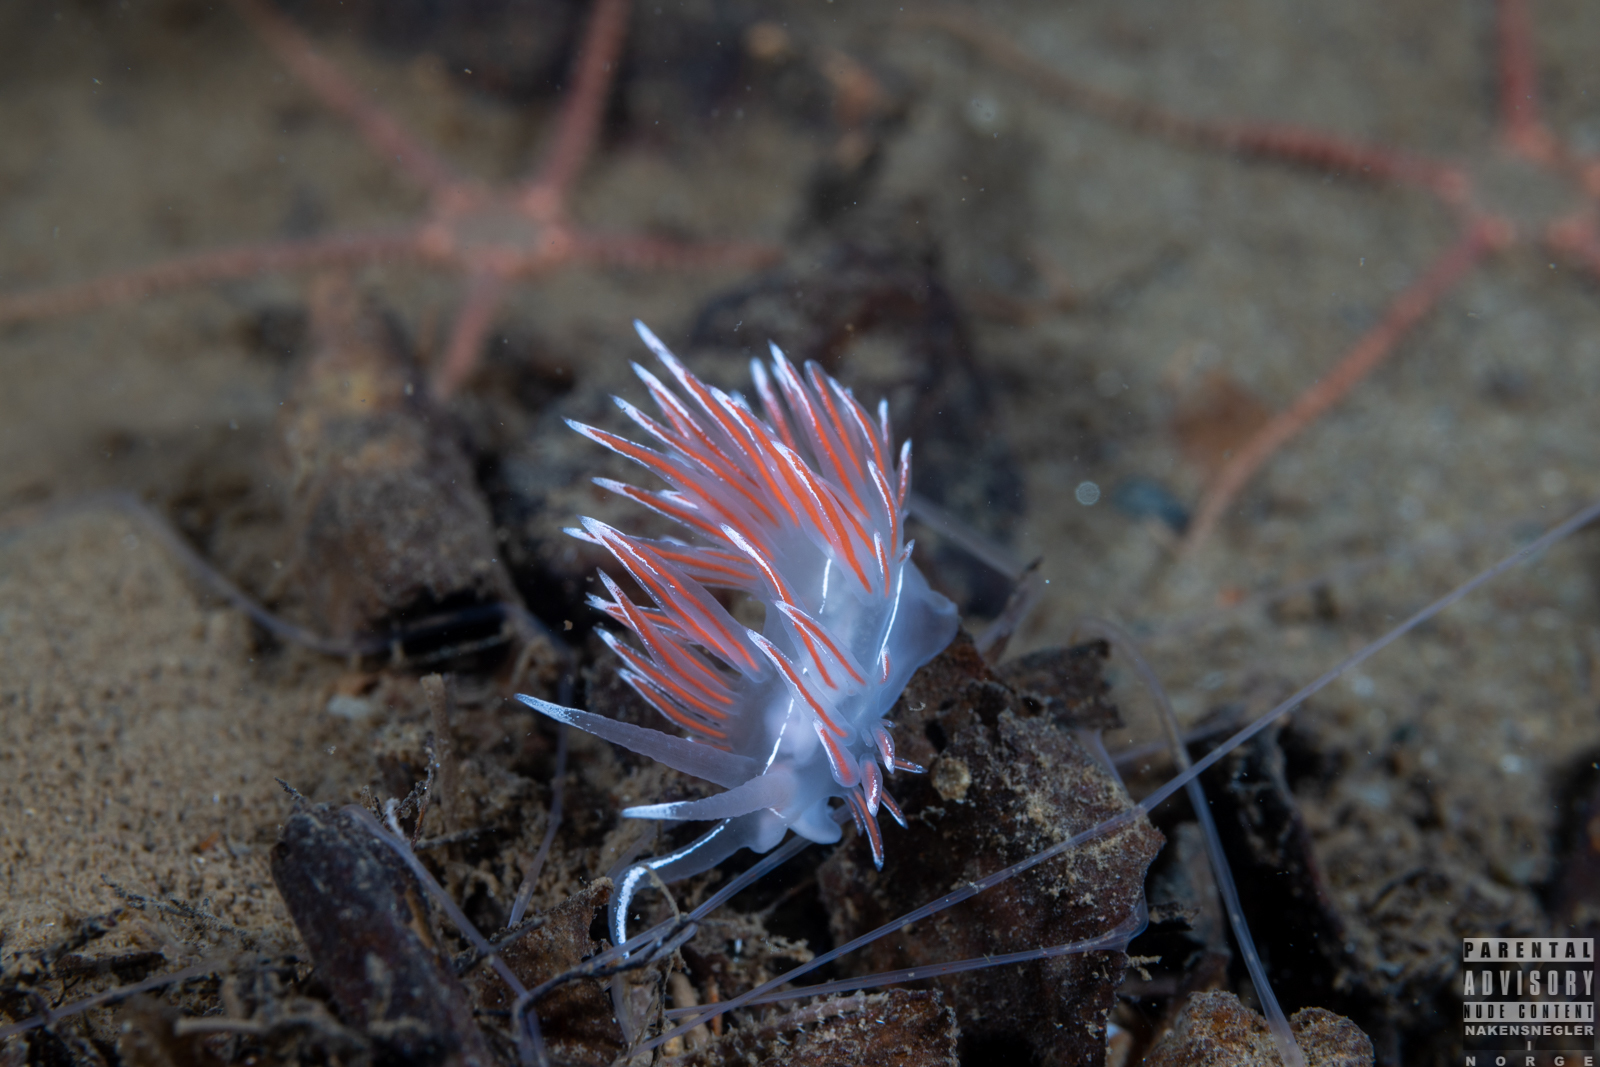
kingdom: Animalia
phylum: Mollusca
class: Gastropoda
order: Nudibranchia
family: Coryphellidae
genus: Coryphella
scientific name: Coryphella lineata
